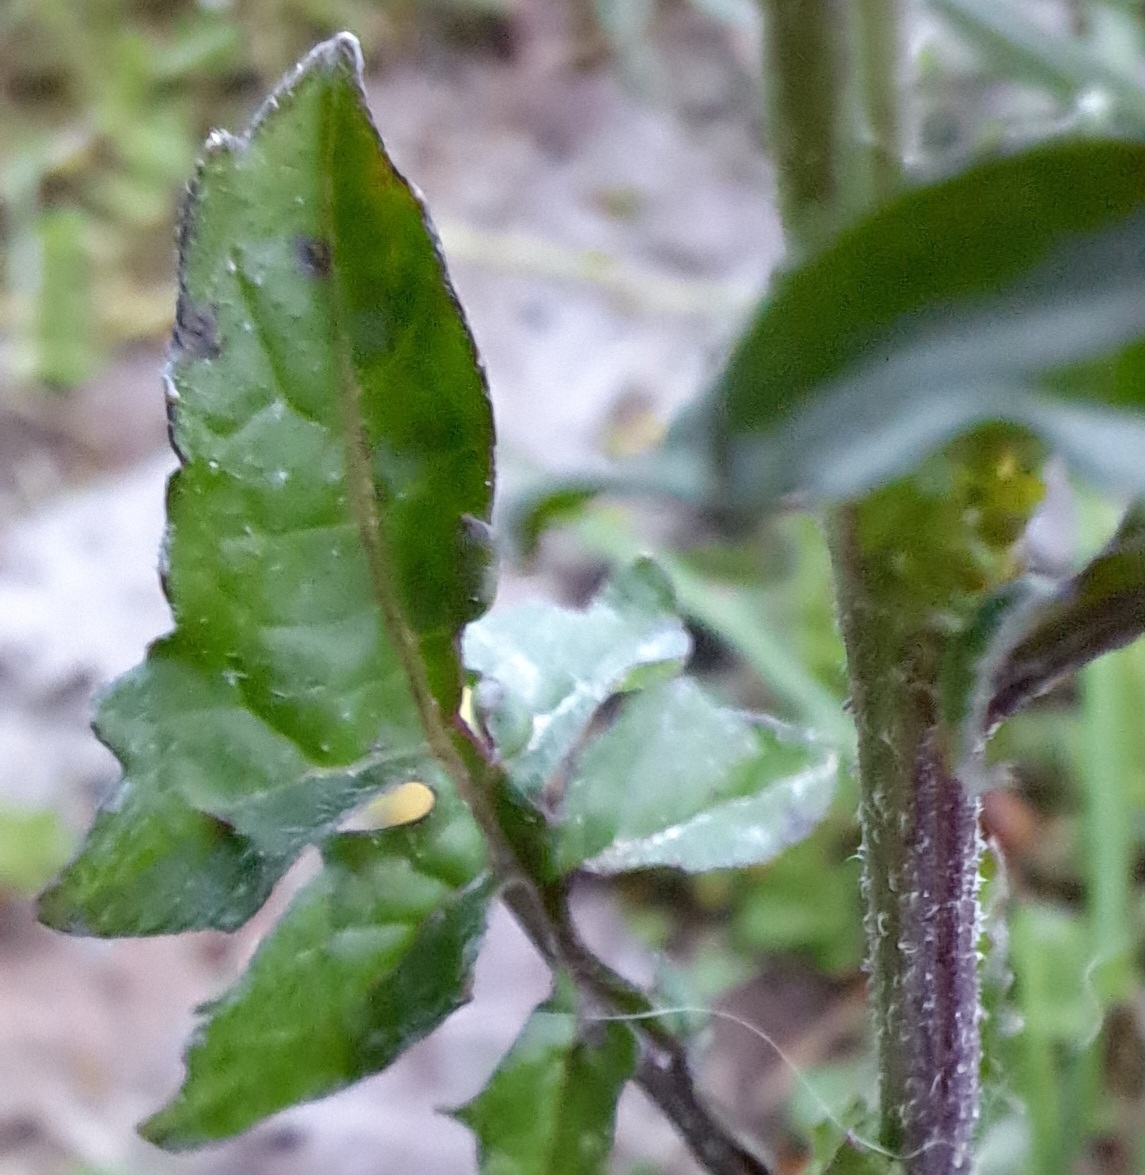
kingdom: Plantae
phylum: Tracheophyta
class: Magnoliopsida
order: Brassicales
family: Brassicaceae
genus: Sisymbrium
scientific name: Sisymbrium officinale
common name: Hedge mustard
